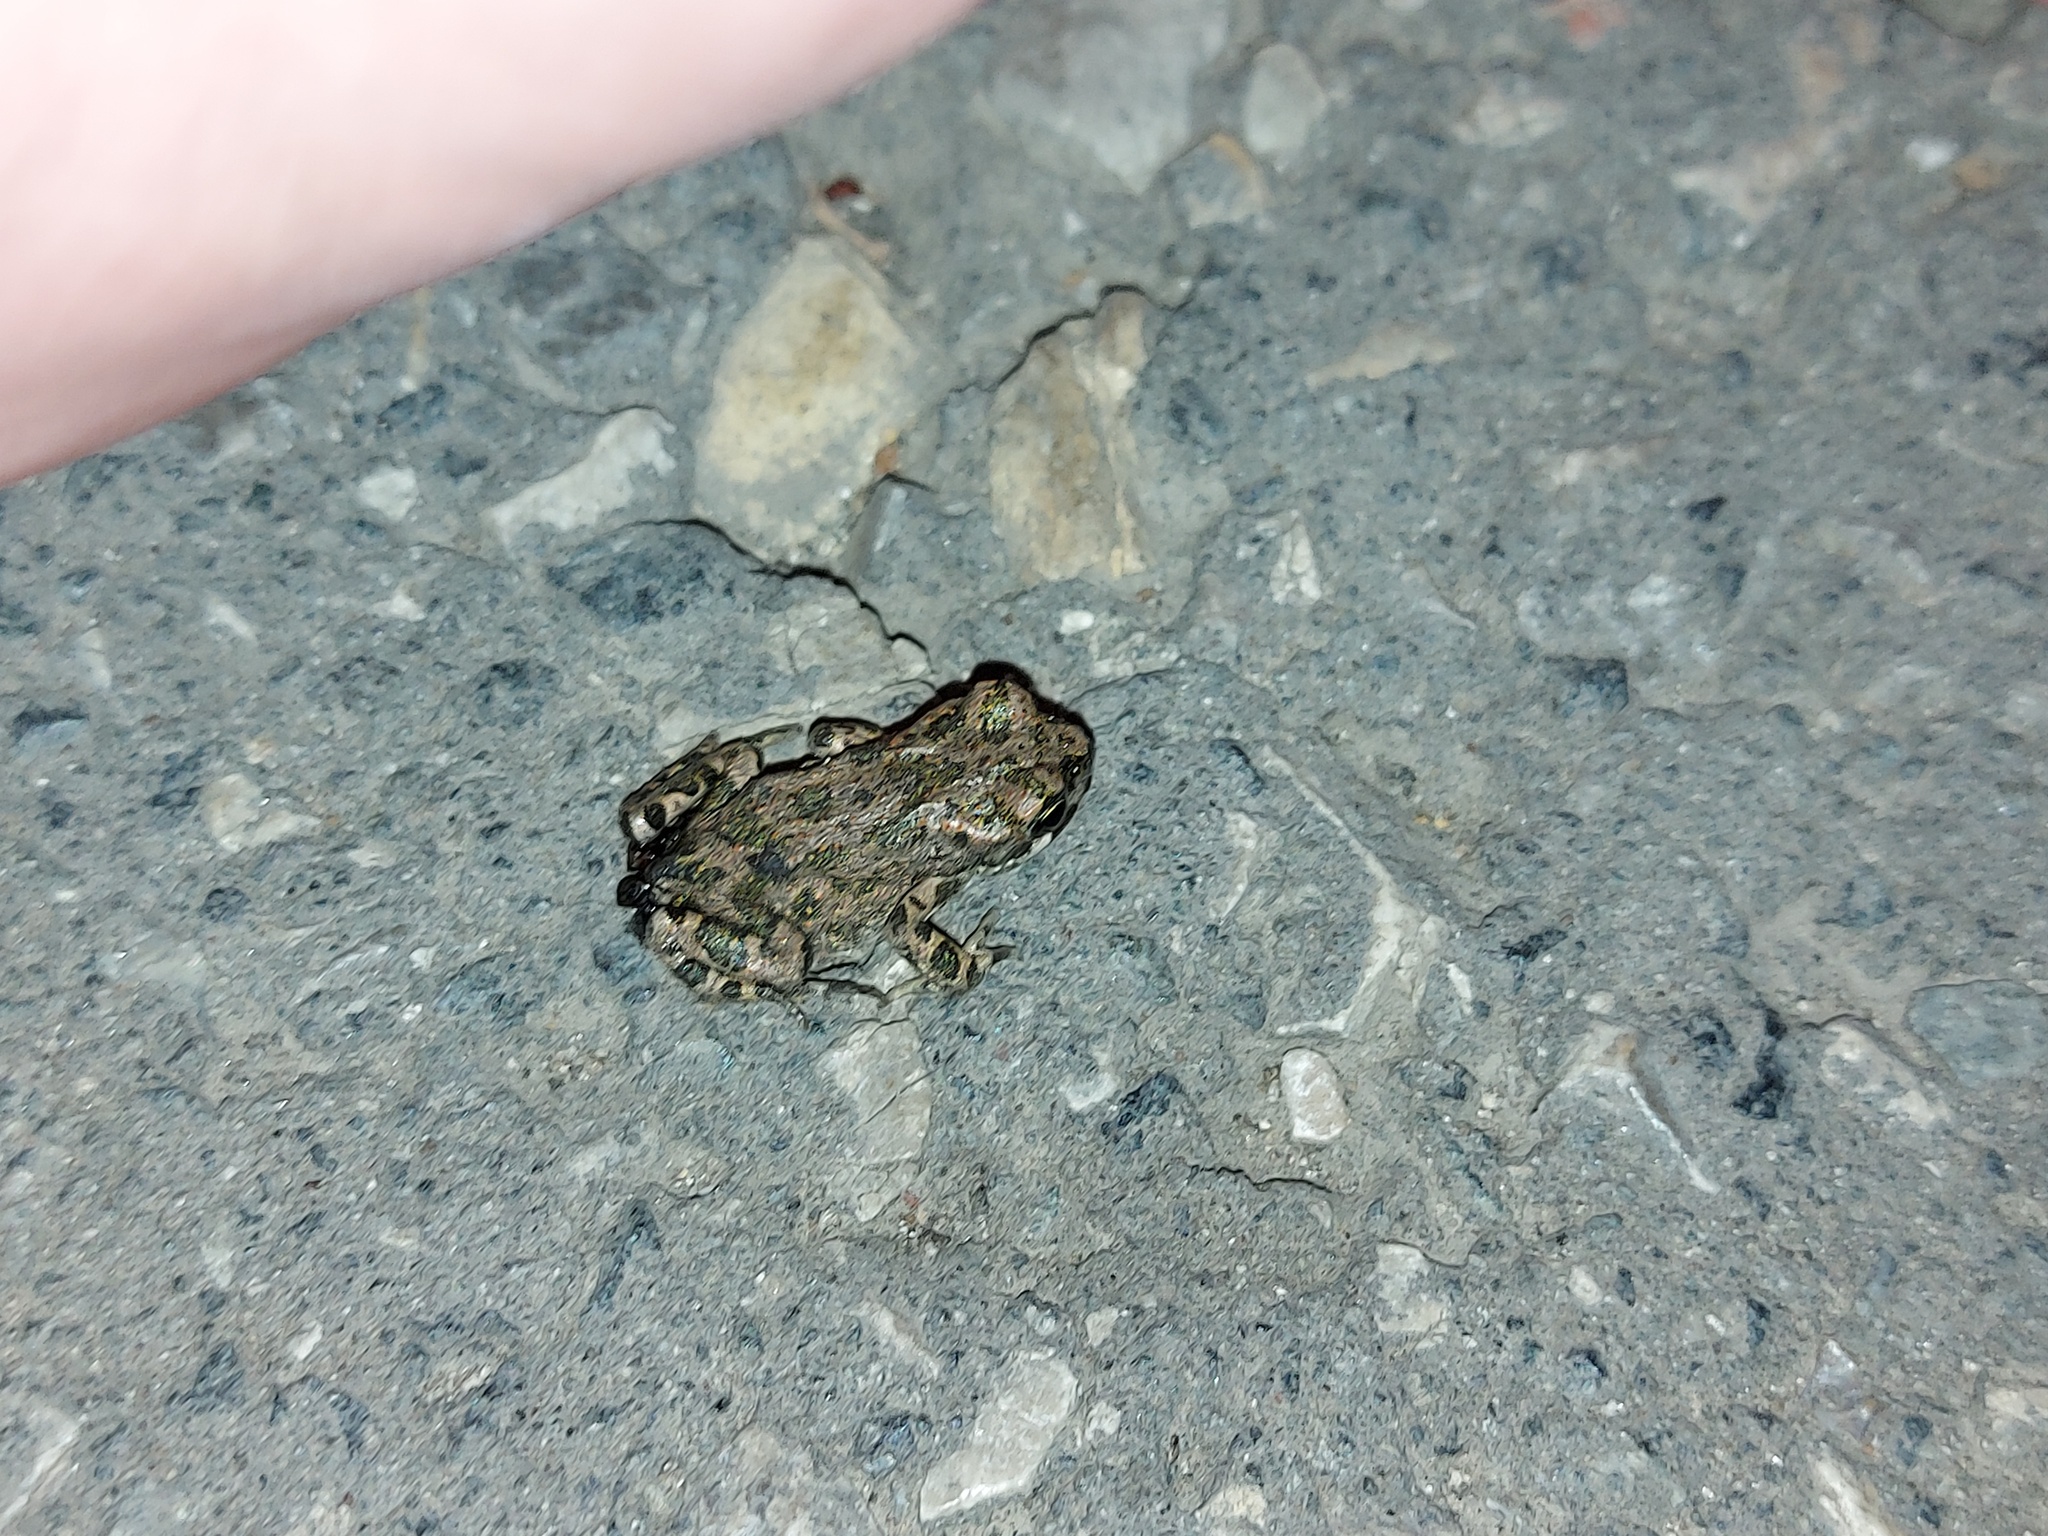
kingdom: Animalia
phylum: Chordata
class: Amphibia
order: Anura
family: Bufonidae
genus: Bufotes
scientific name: Bufotes viridis
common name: European green toad
